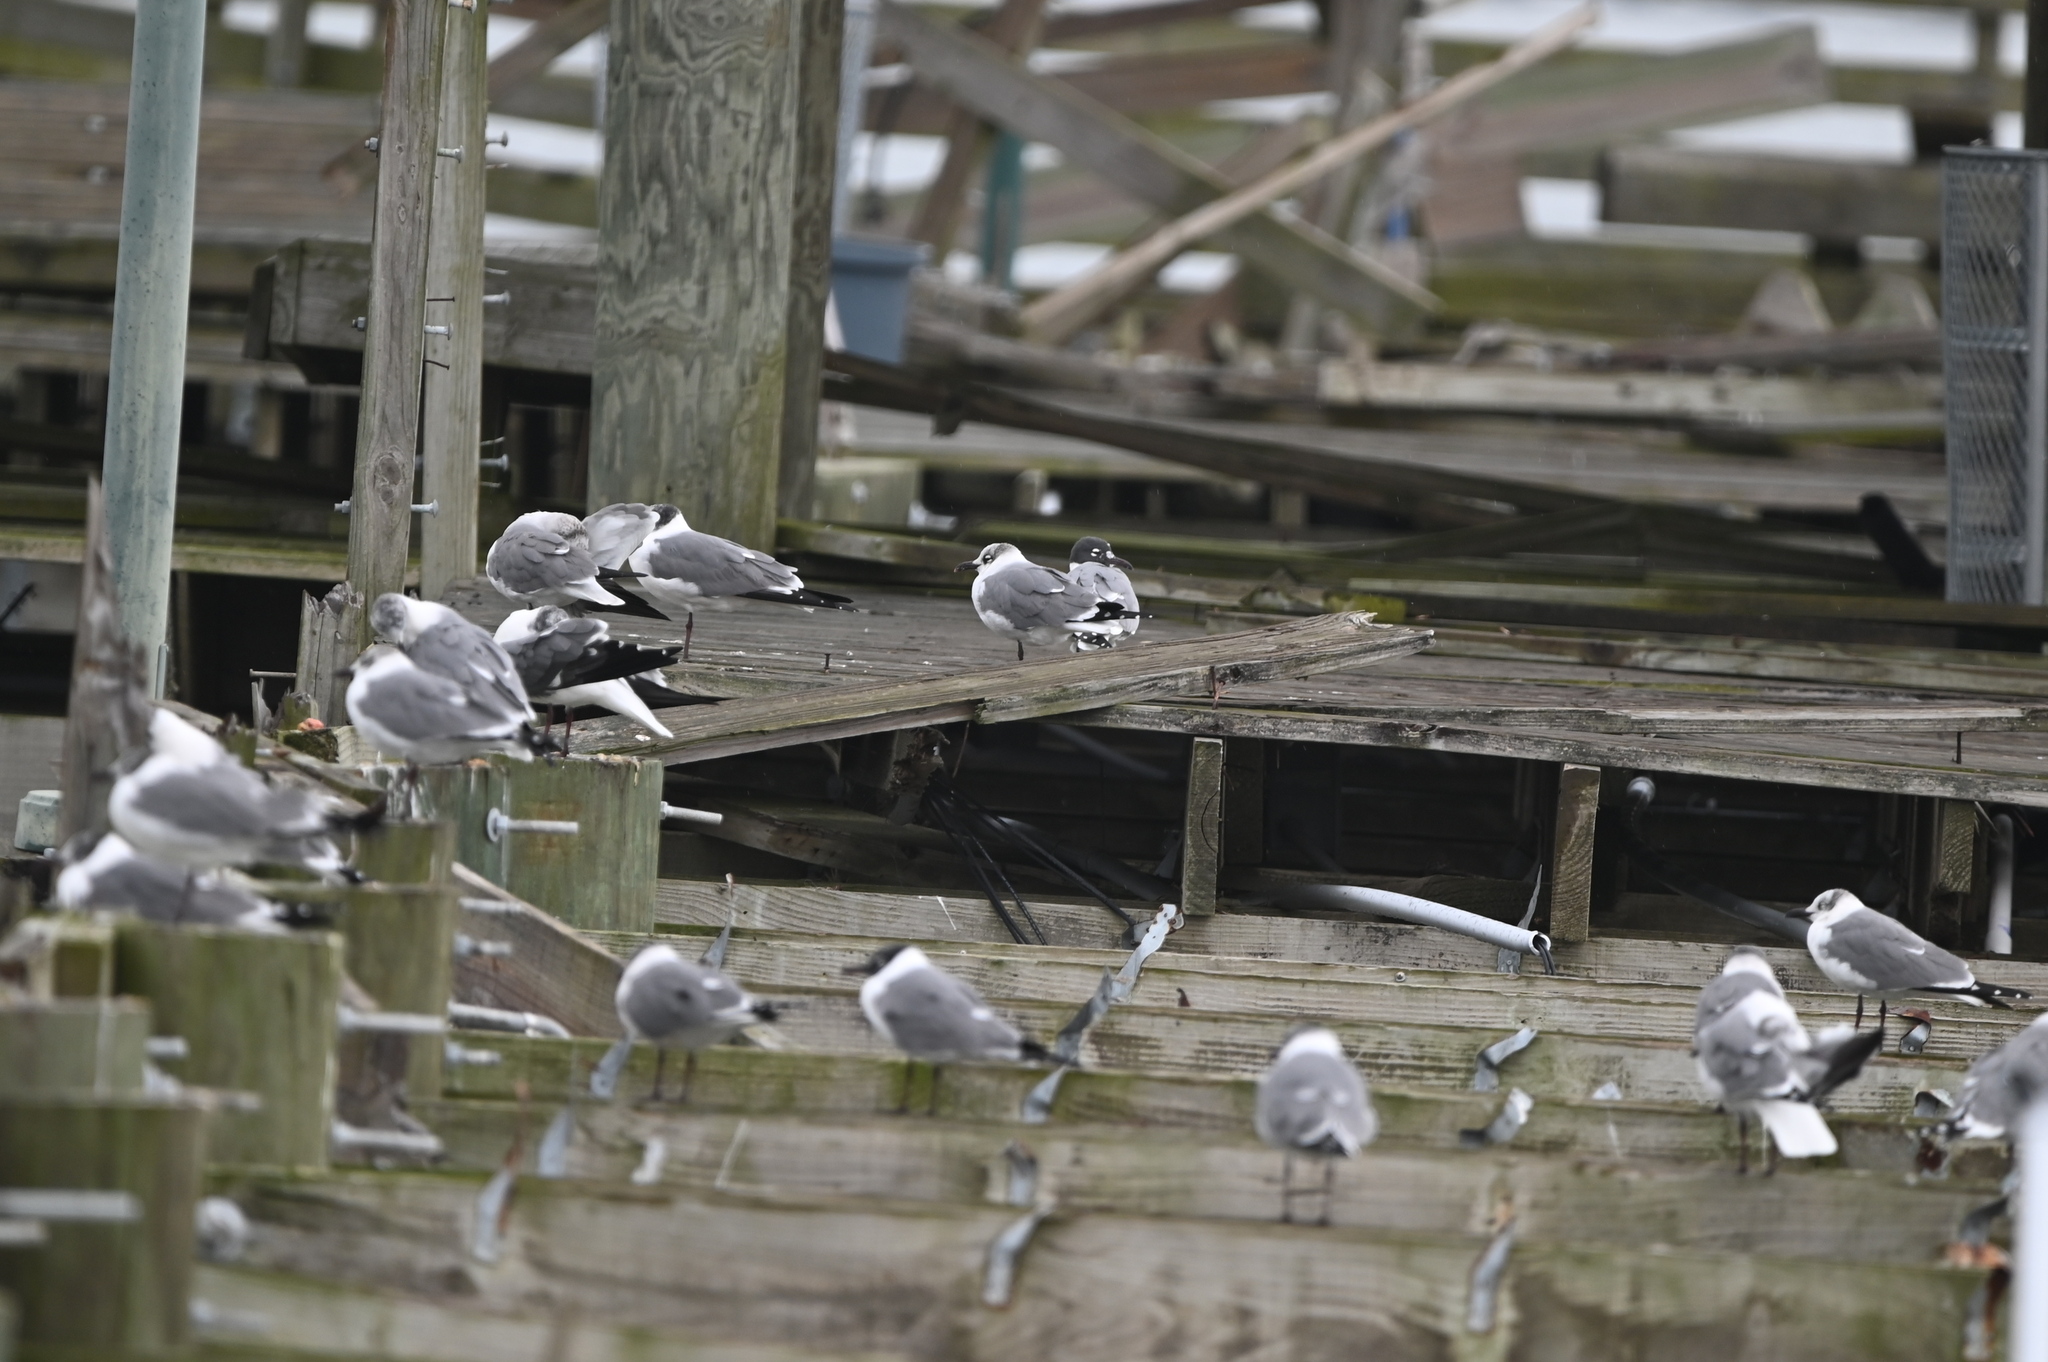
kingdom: Animalia
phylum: Chordata
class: Aves
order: Charadriiformes
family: Laridae
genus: Leucophaeus
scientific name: Leucophaeus atricilla
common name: Laughing gull
